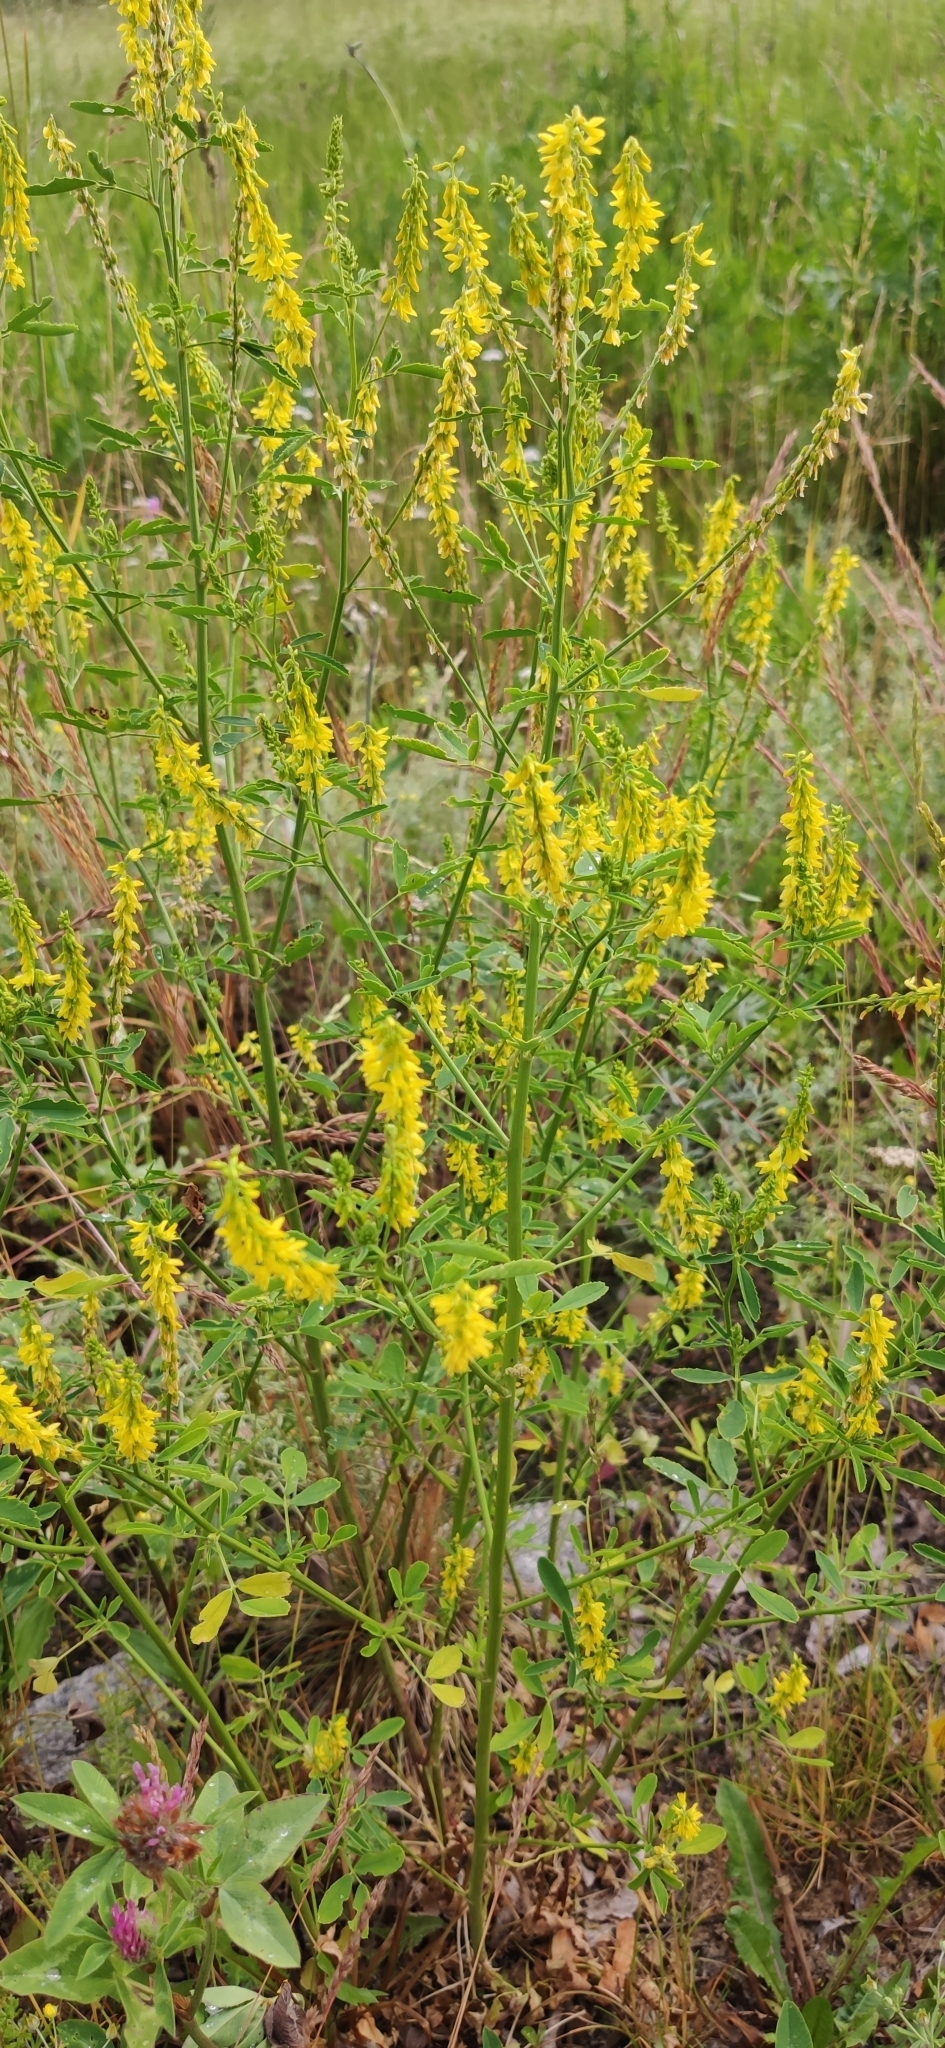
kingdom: Plantae
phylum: Tracheophyta
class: Magnoliopsida
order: Fabales
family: Fabaceae
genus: Melilotus
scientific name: Melilotus officinalis
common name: Sweetclover
